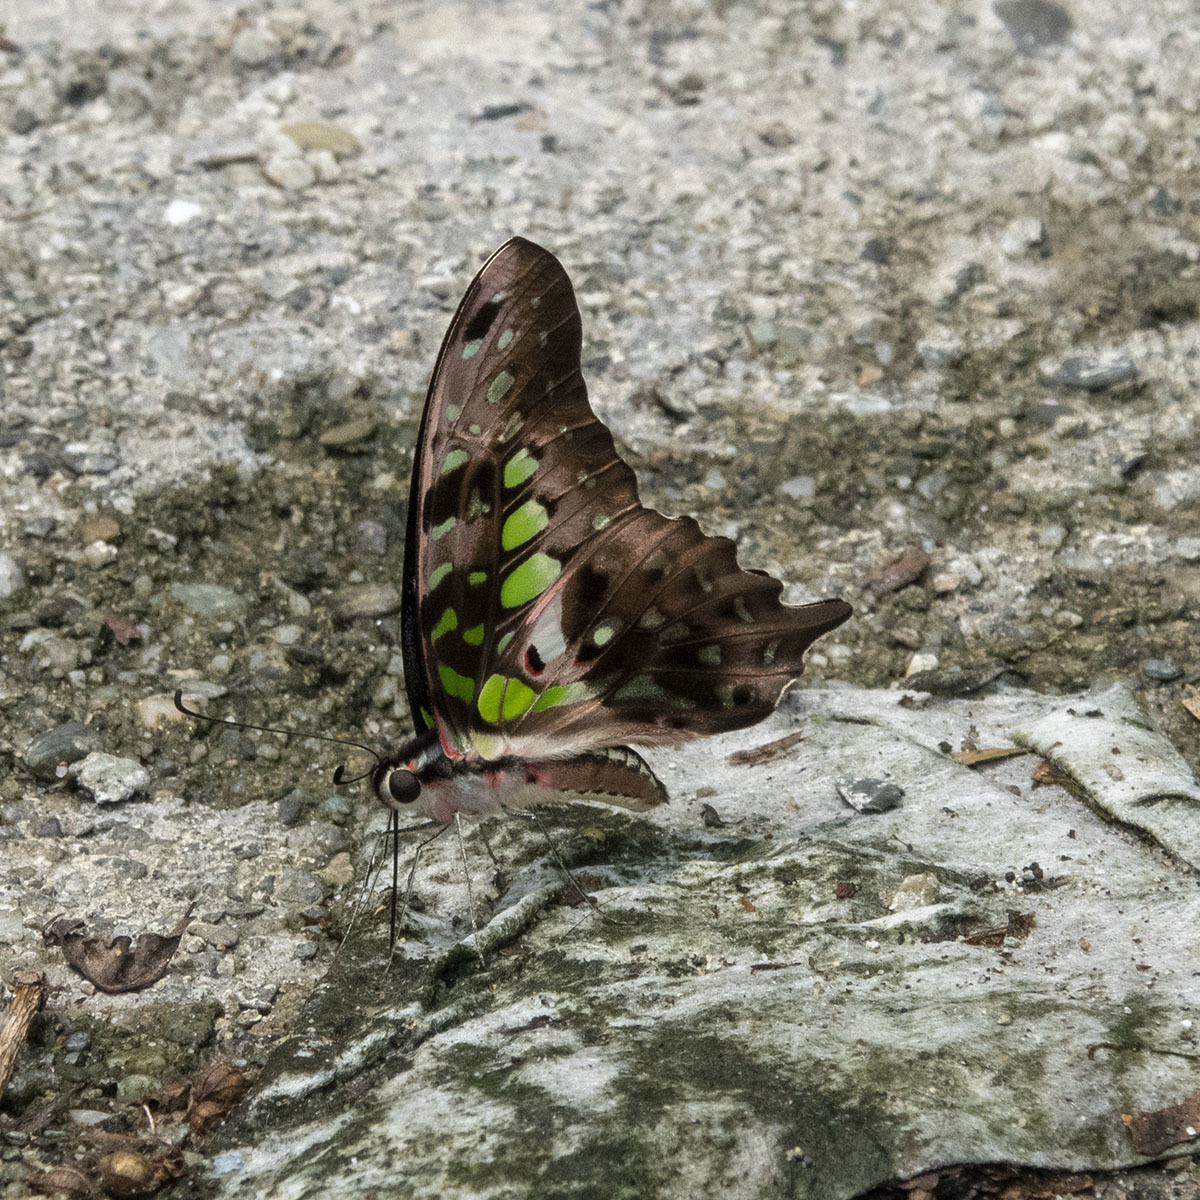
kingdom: Animalia
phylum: Arthropoda
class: Insecta
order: Lepidoptera
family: Papilionidae
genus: Graphium
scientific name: Graphium agamemnon
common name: Tailed jay
